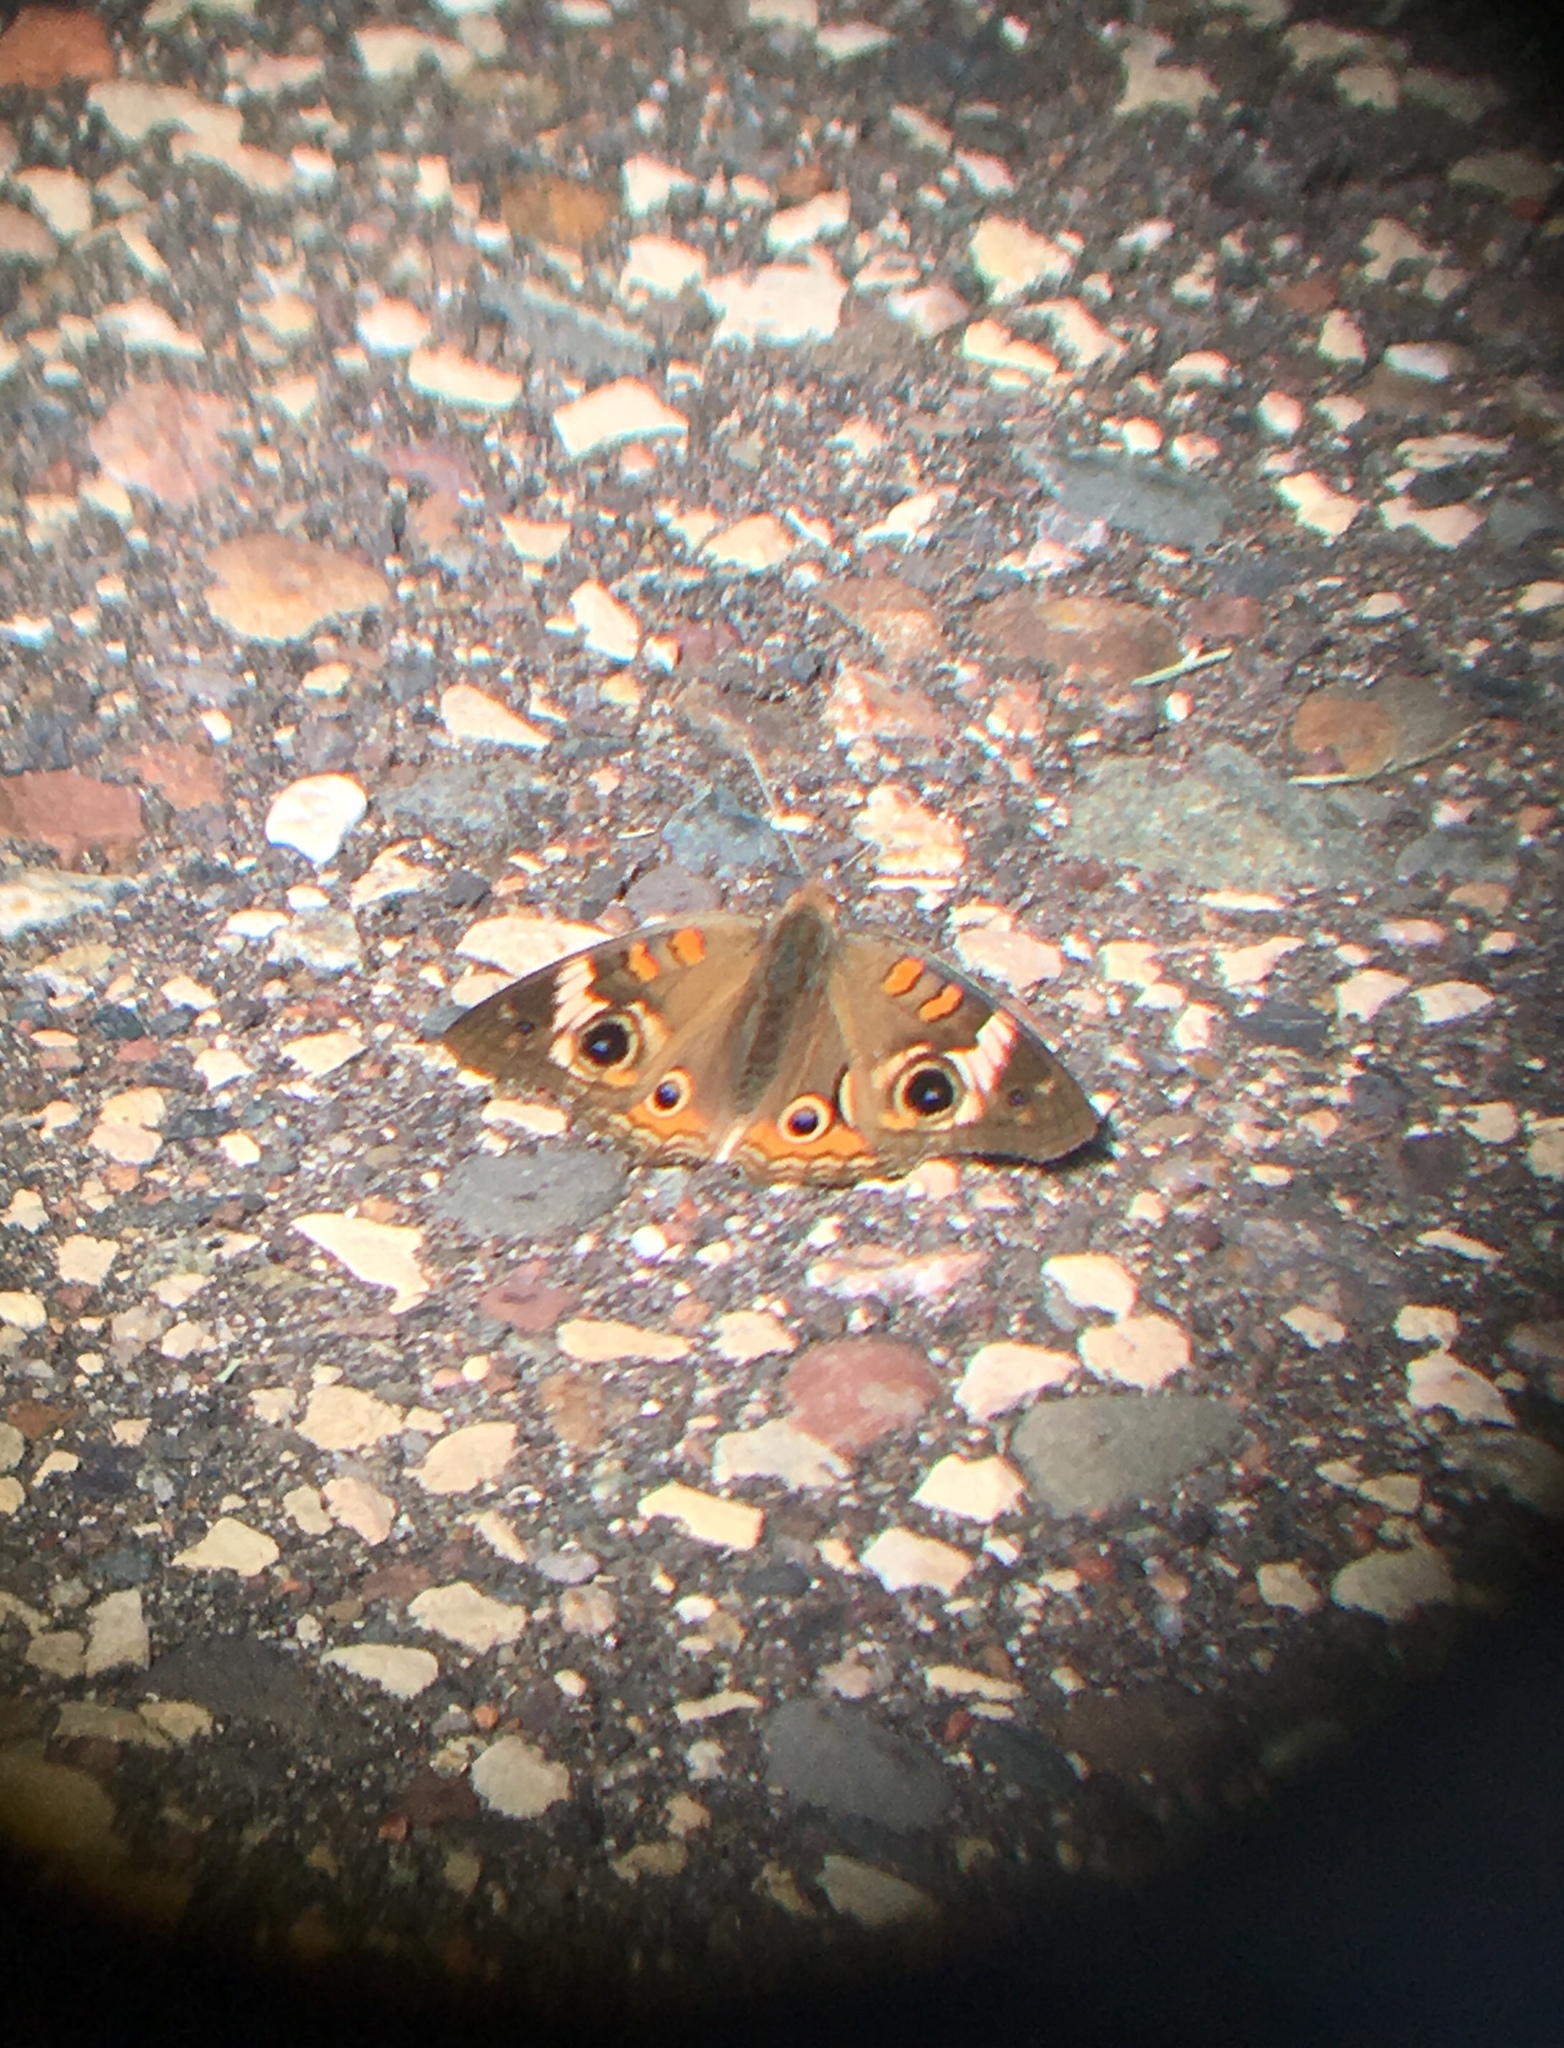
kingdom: Animalia
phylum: Arthropoda
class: Insecta
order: Lepidoptera
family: Nymphalidae
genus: Junonia
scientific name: Junonia coenia
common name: Common buckeye
